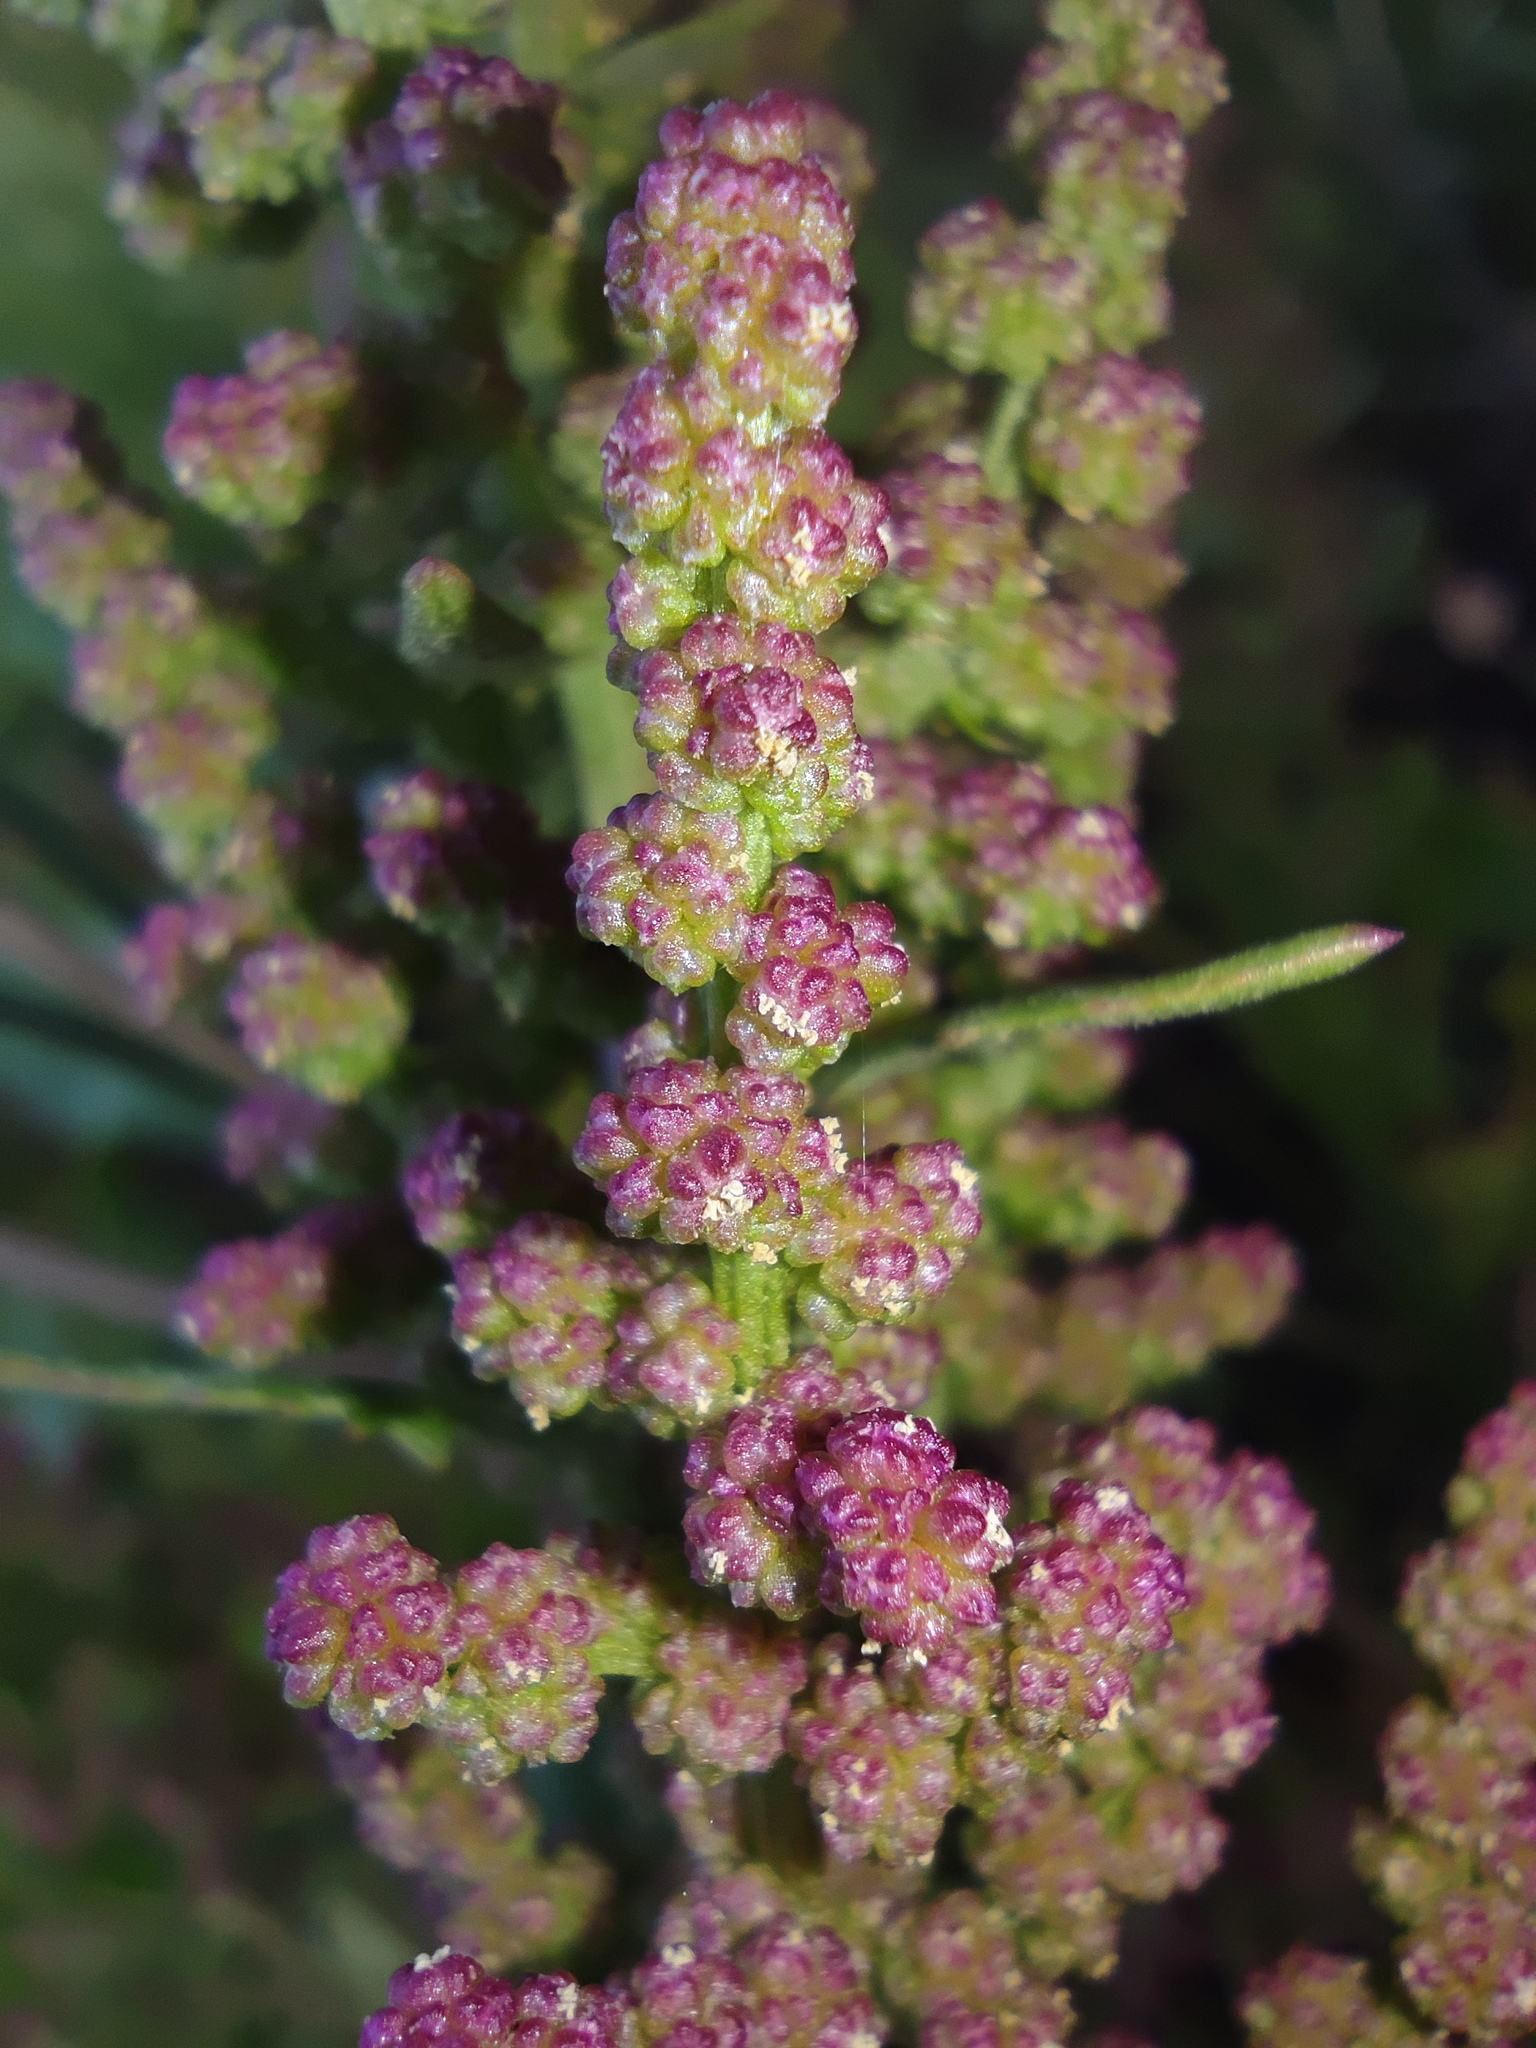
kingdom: Plantae
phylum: Tracheophyta
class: Magnoliopsida
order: Caryophyllales
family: Amaranthaceae
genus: Oxybasis
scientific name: Oxybasis rubra
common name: Red goosefoot
